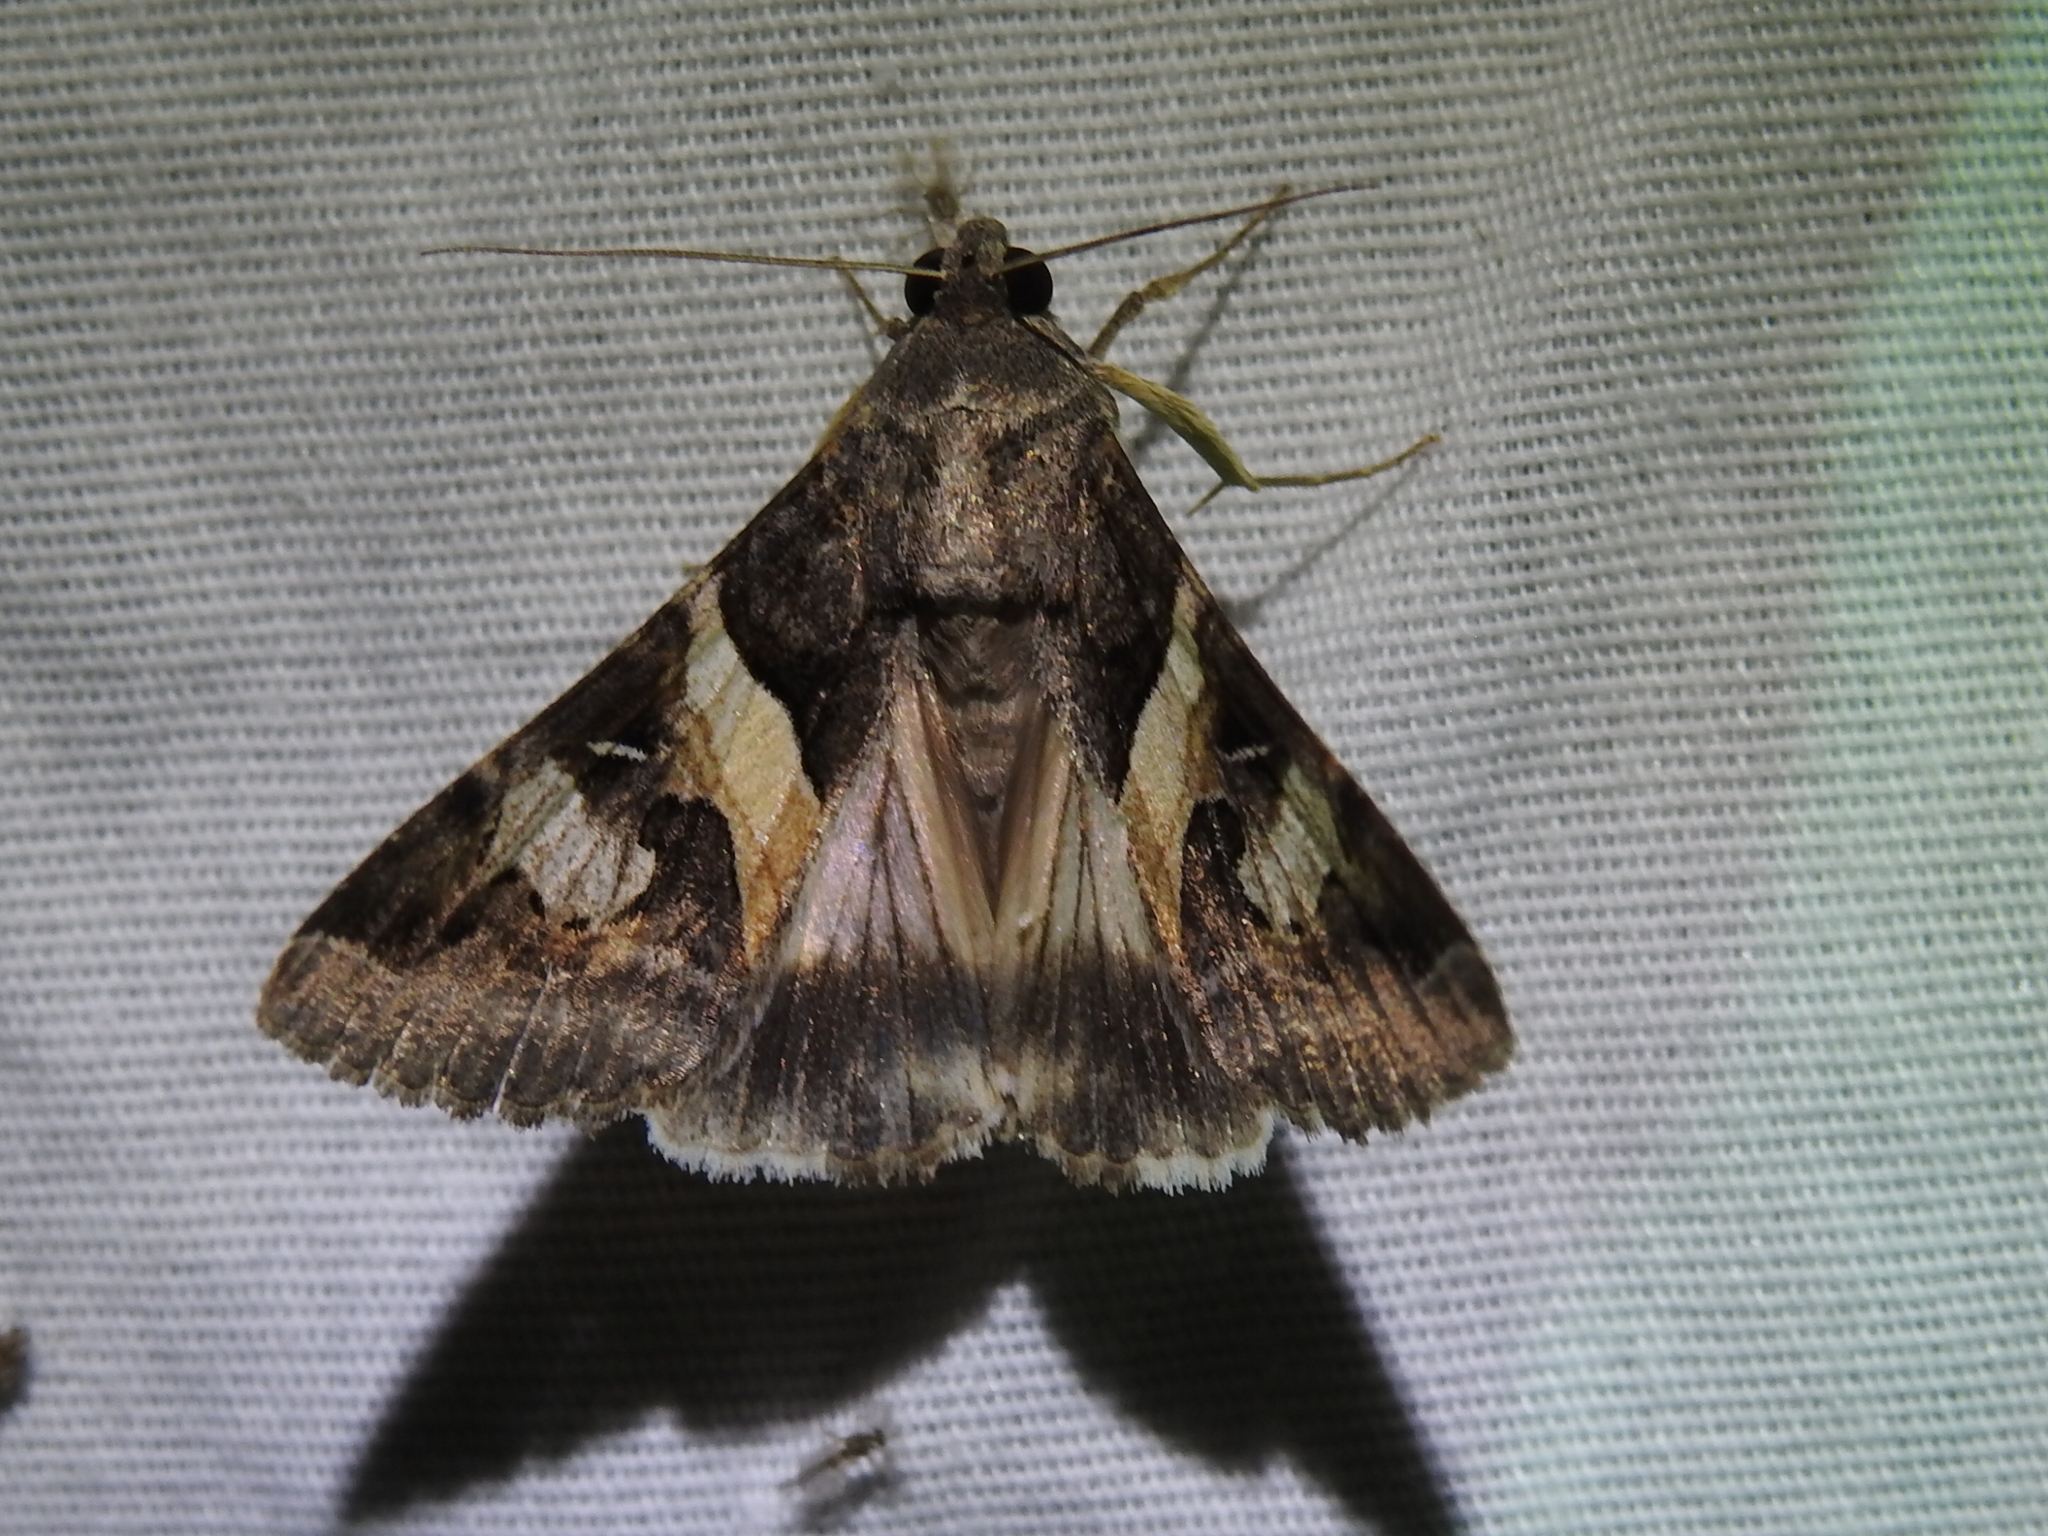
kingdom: Animalia
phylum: Arthropoda
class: Insecta
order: Lepidoptera
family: Erebidae
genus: Melipotis
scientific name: Melipotis indomita
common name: Moth
